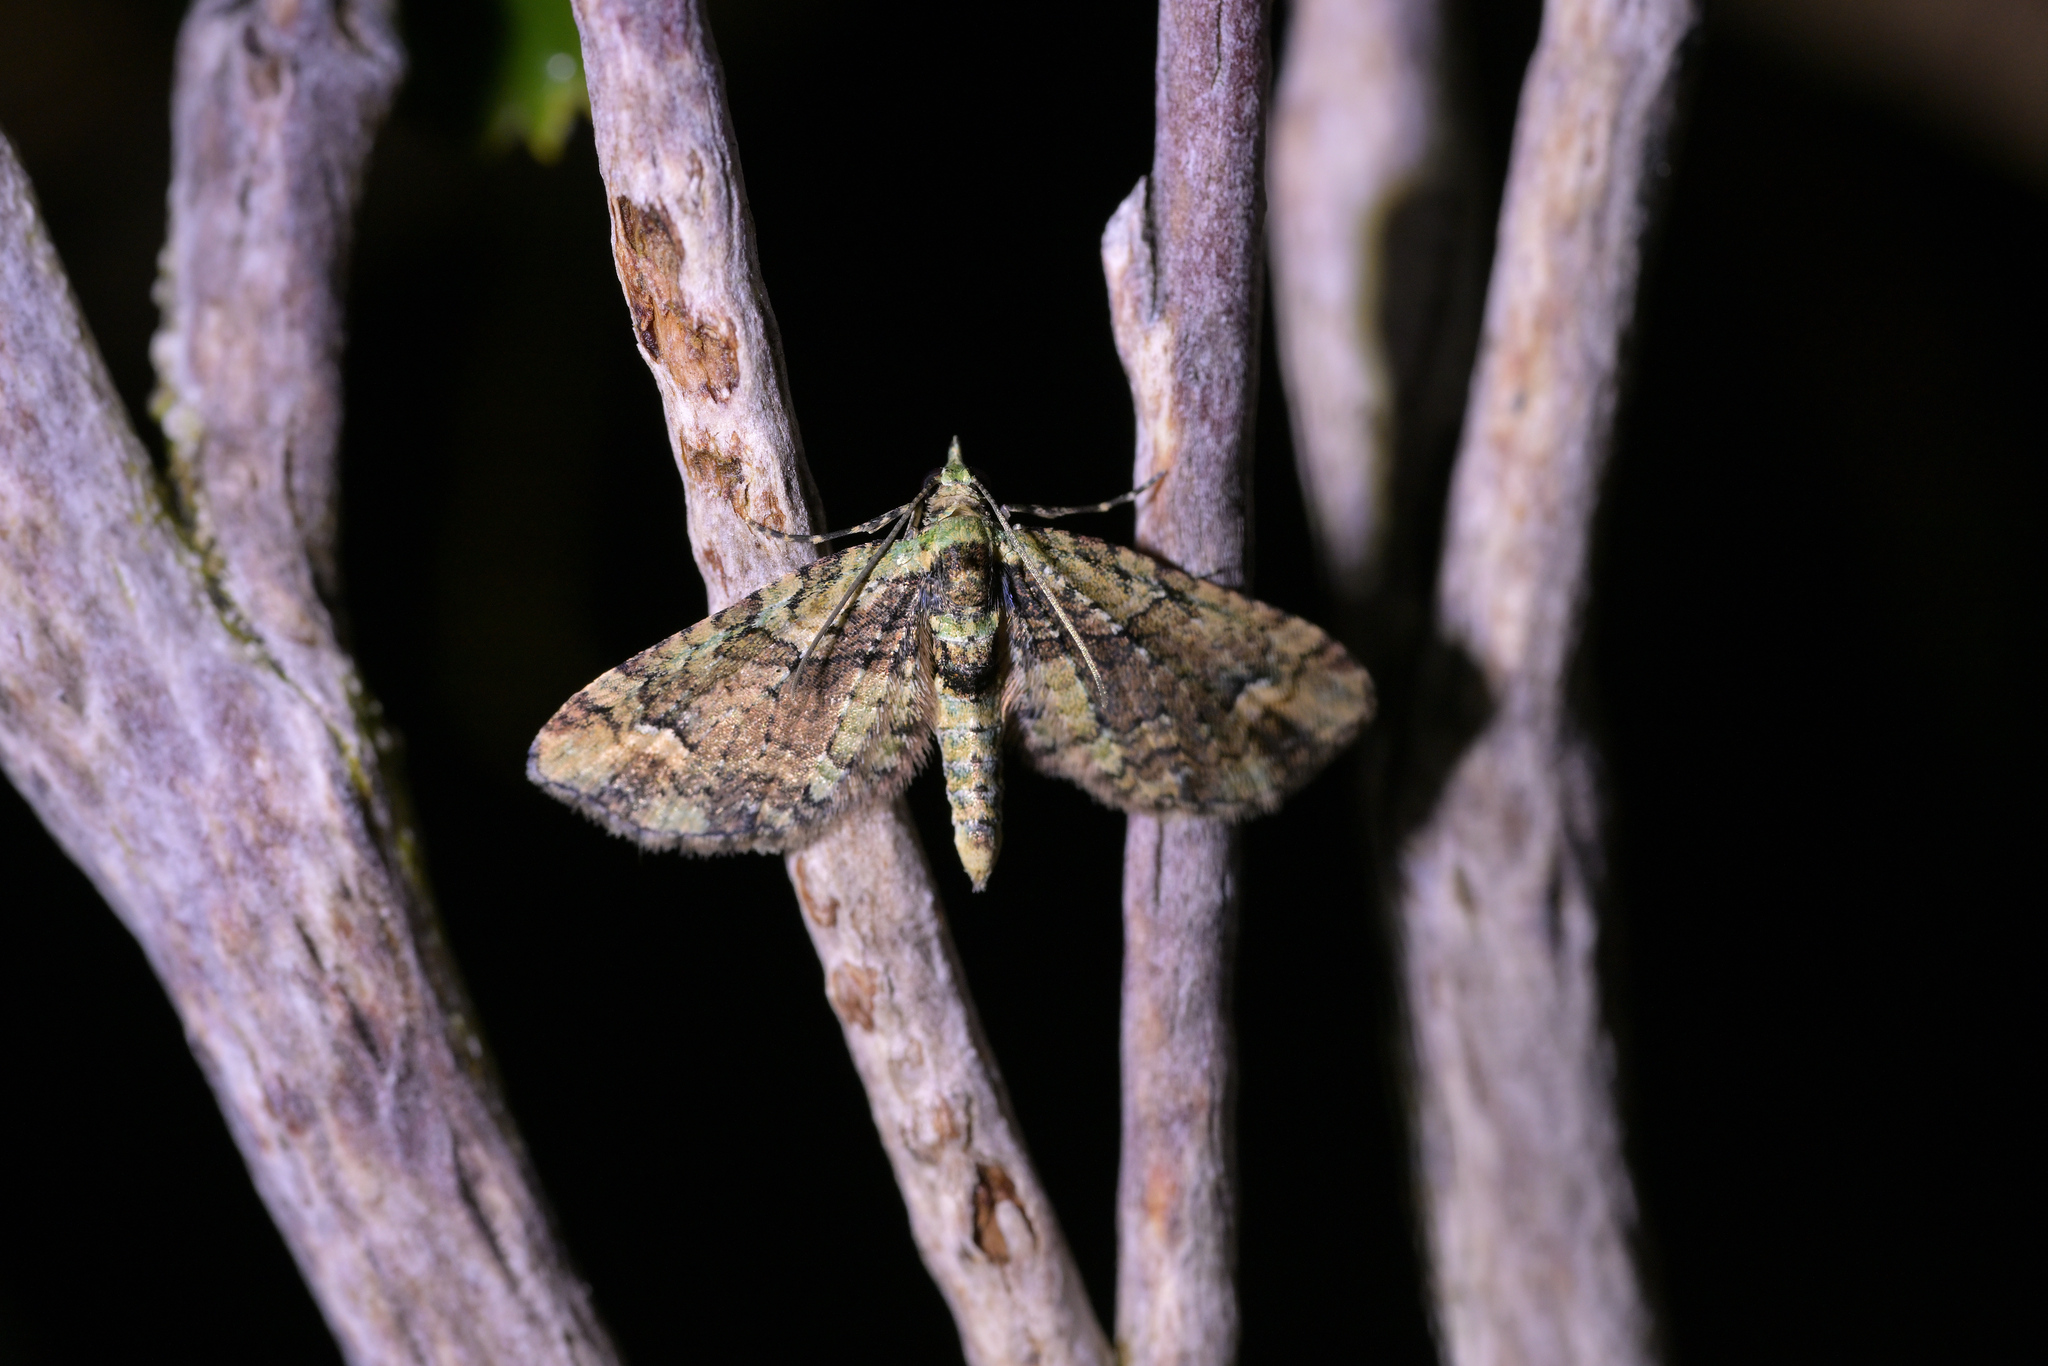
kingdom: Animalia
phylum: Arthropoda
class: Insecta
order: Lepidoptera
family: Geometridae
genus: Idaea
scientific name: Idaea mutanda
